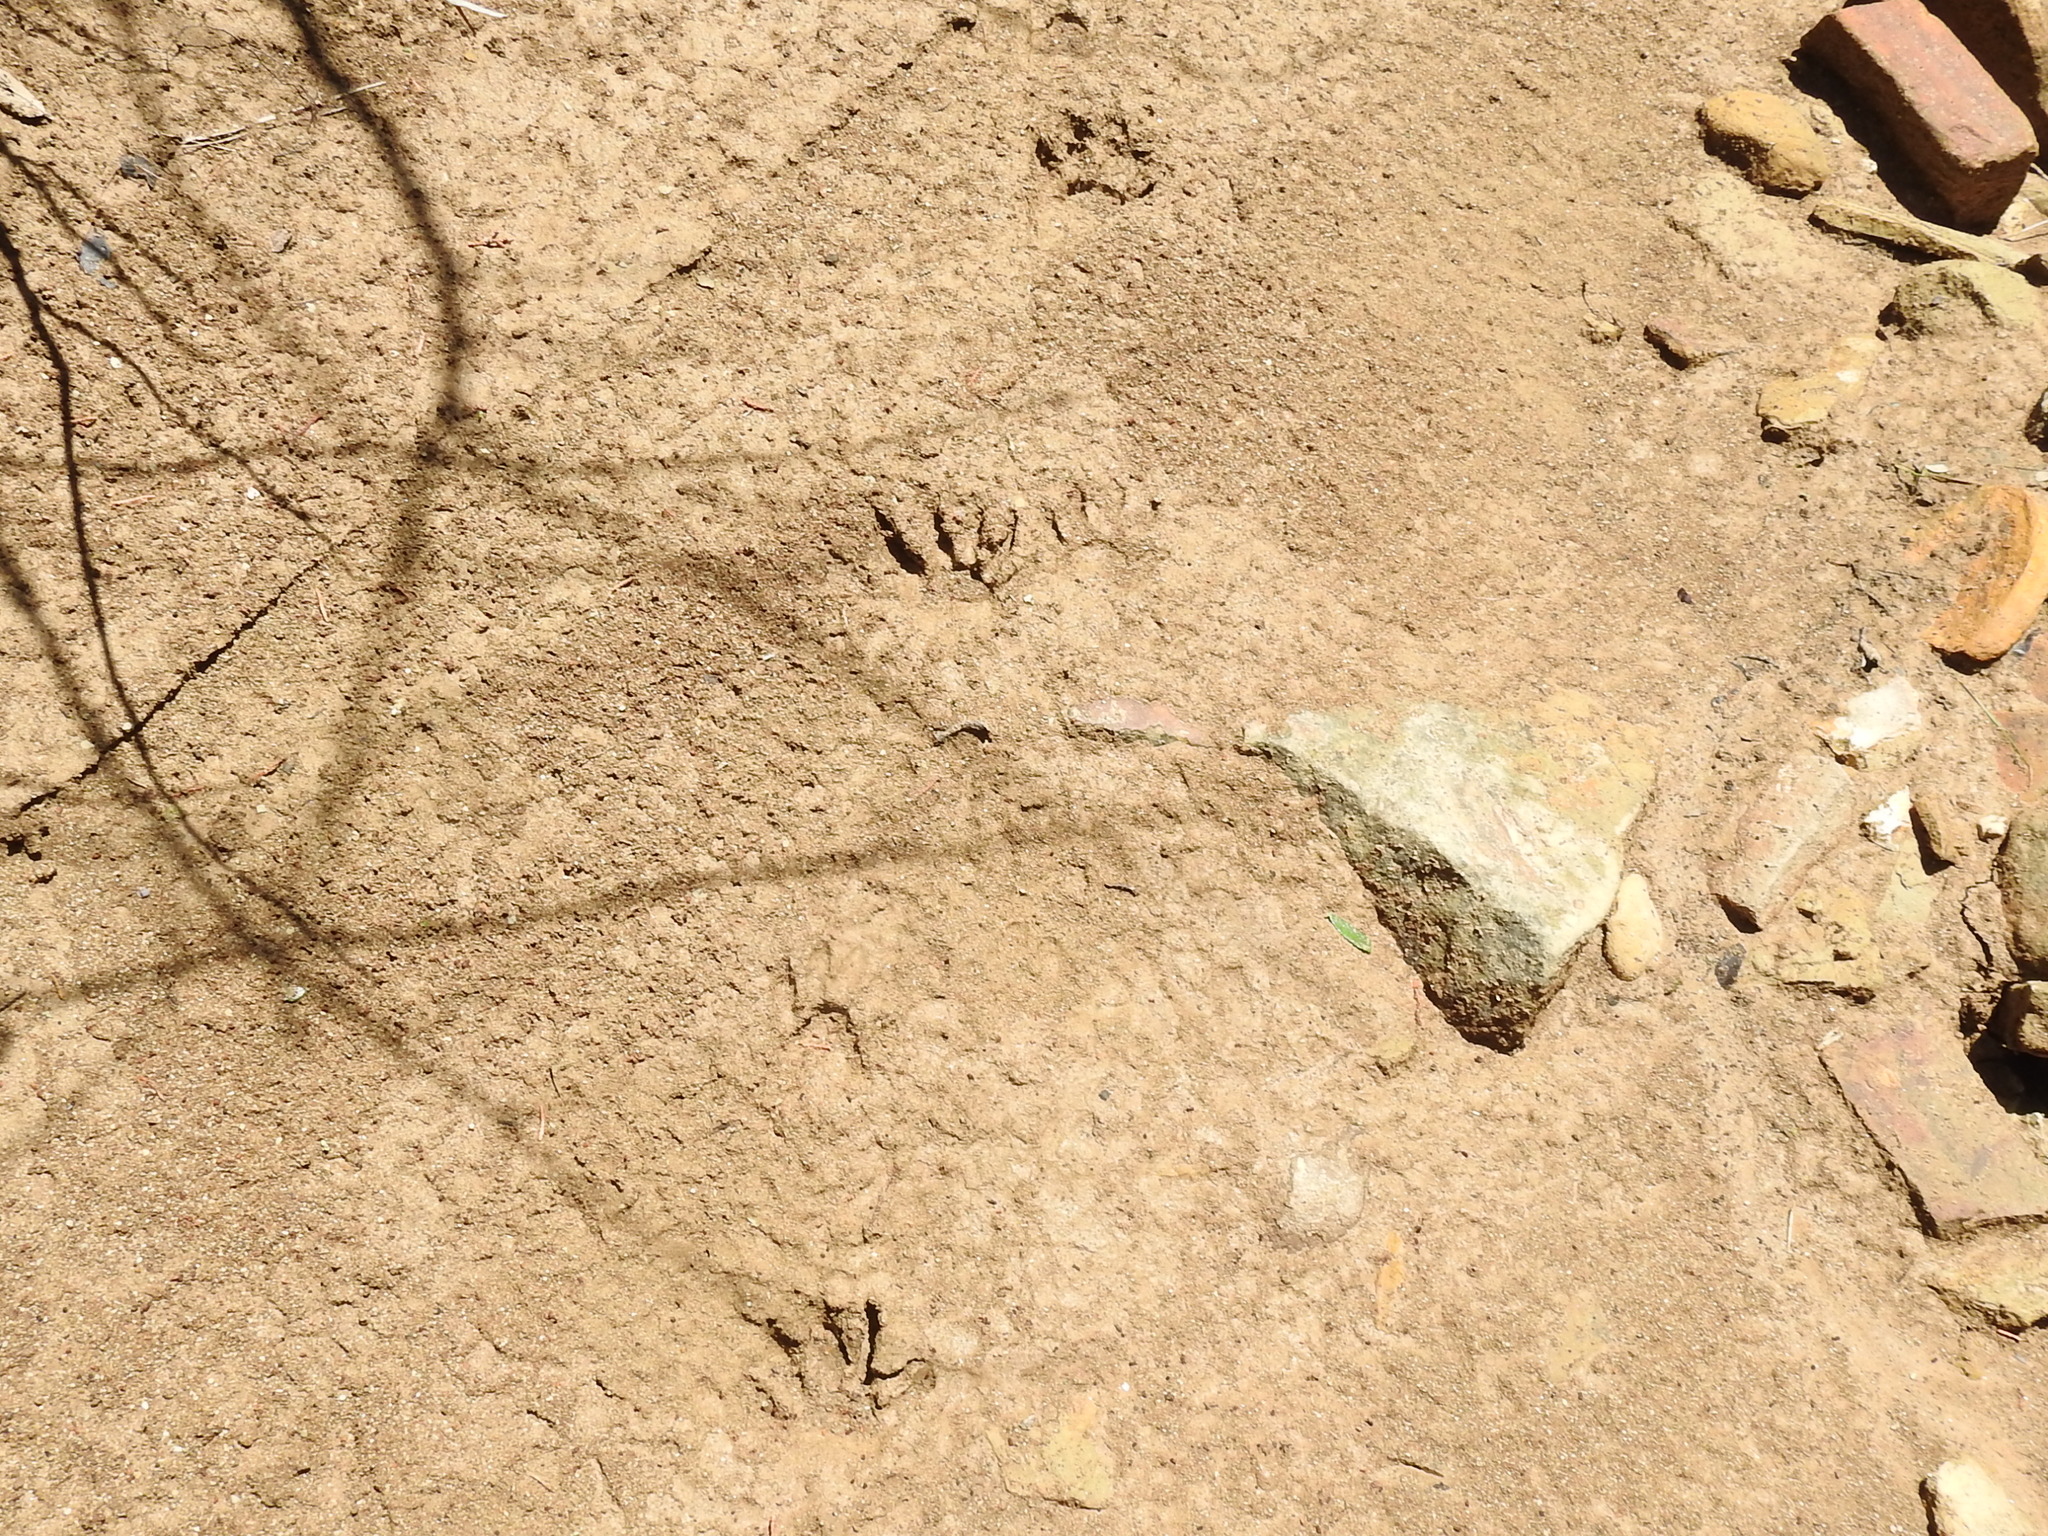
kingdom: Animalia
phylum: Chordata
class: Mammalia
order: Carnivora
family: Procyonidae
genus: Procyon
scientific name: Procyon lotor
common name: Raccoon
